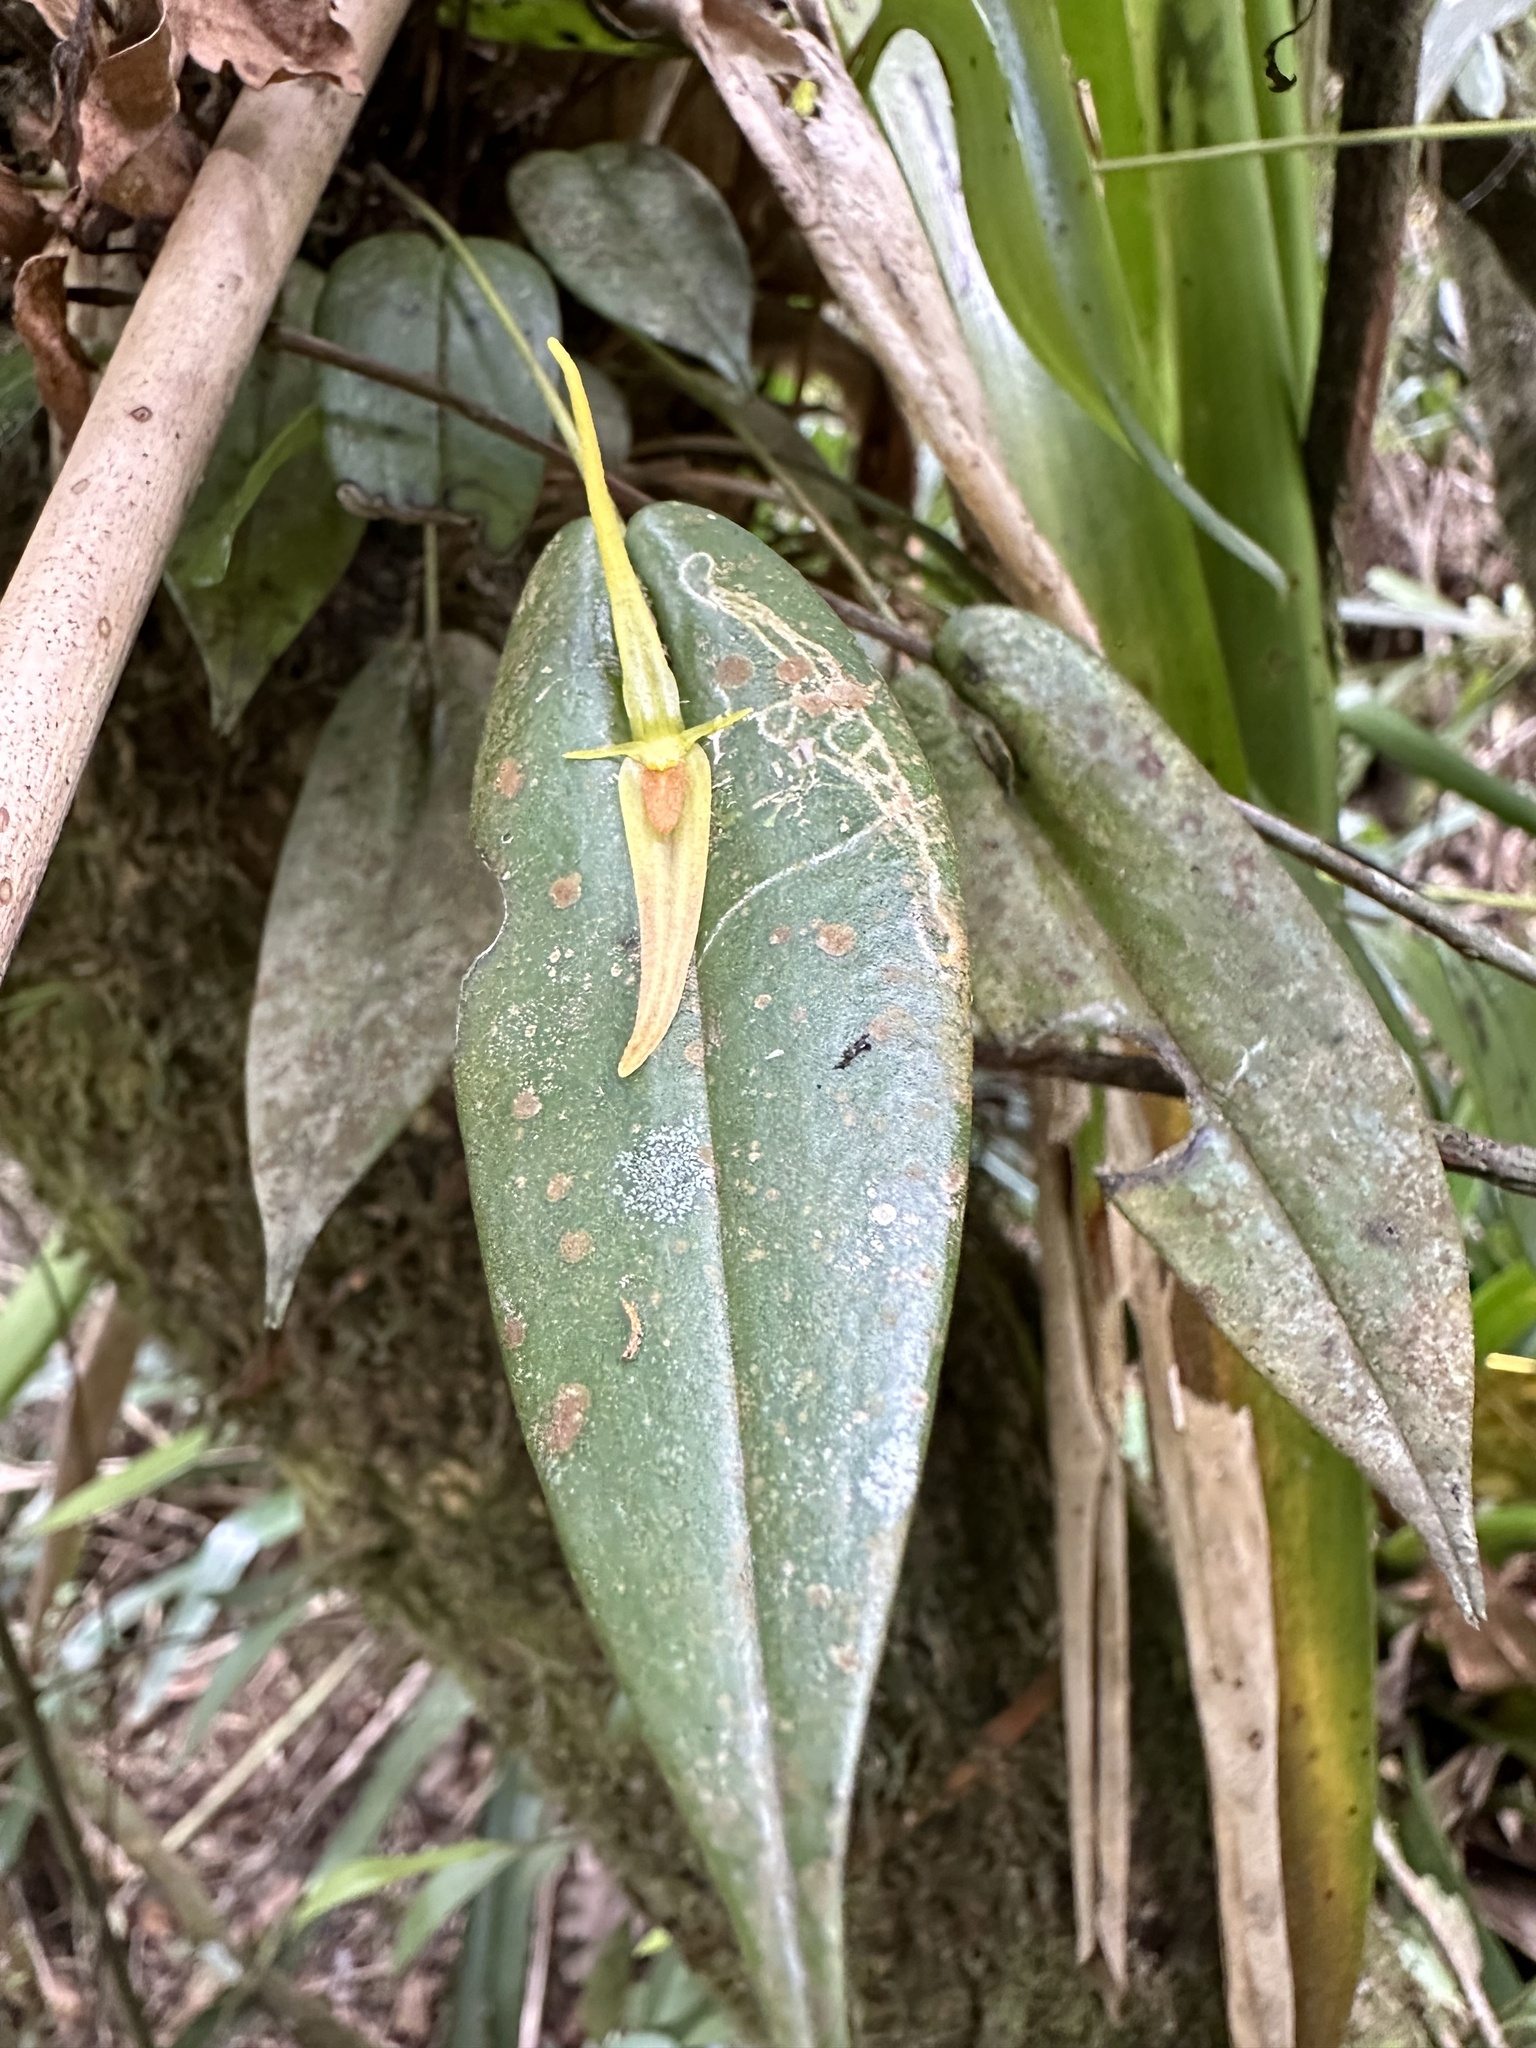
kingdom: Plantae
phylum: Tracheophyta
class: Liliopsida
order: Asparagales
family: Orchidaceae
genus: Pleurothallis
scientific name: Pleurothallis microcardia
